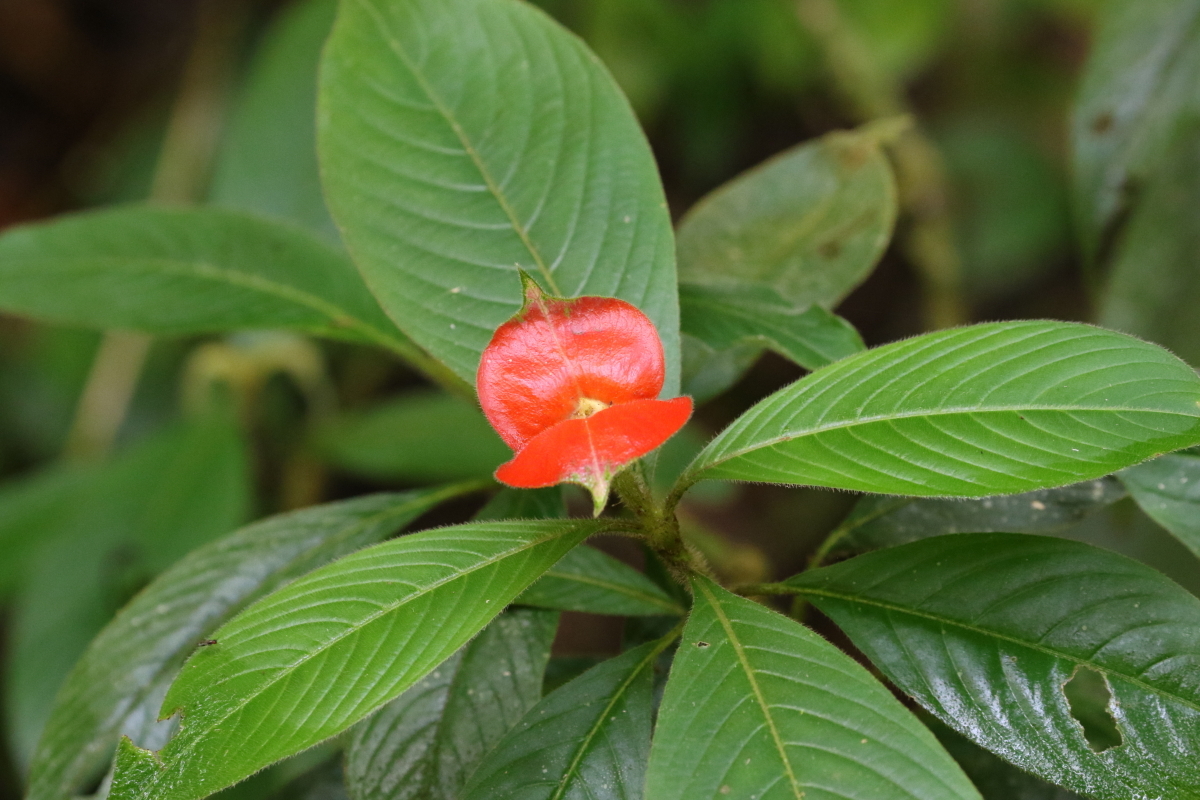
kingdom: Plantae
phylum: Tracheophyta
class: Magnoliopsida
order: Gentianales
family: Rubiaceae
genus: Palicourea
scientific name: Palicourea tomentosa
